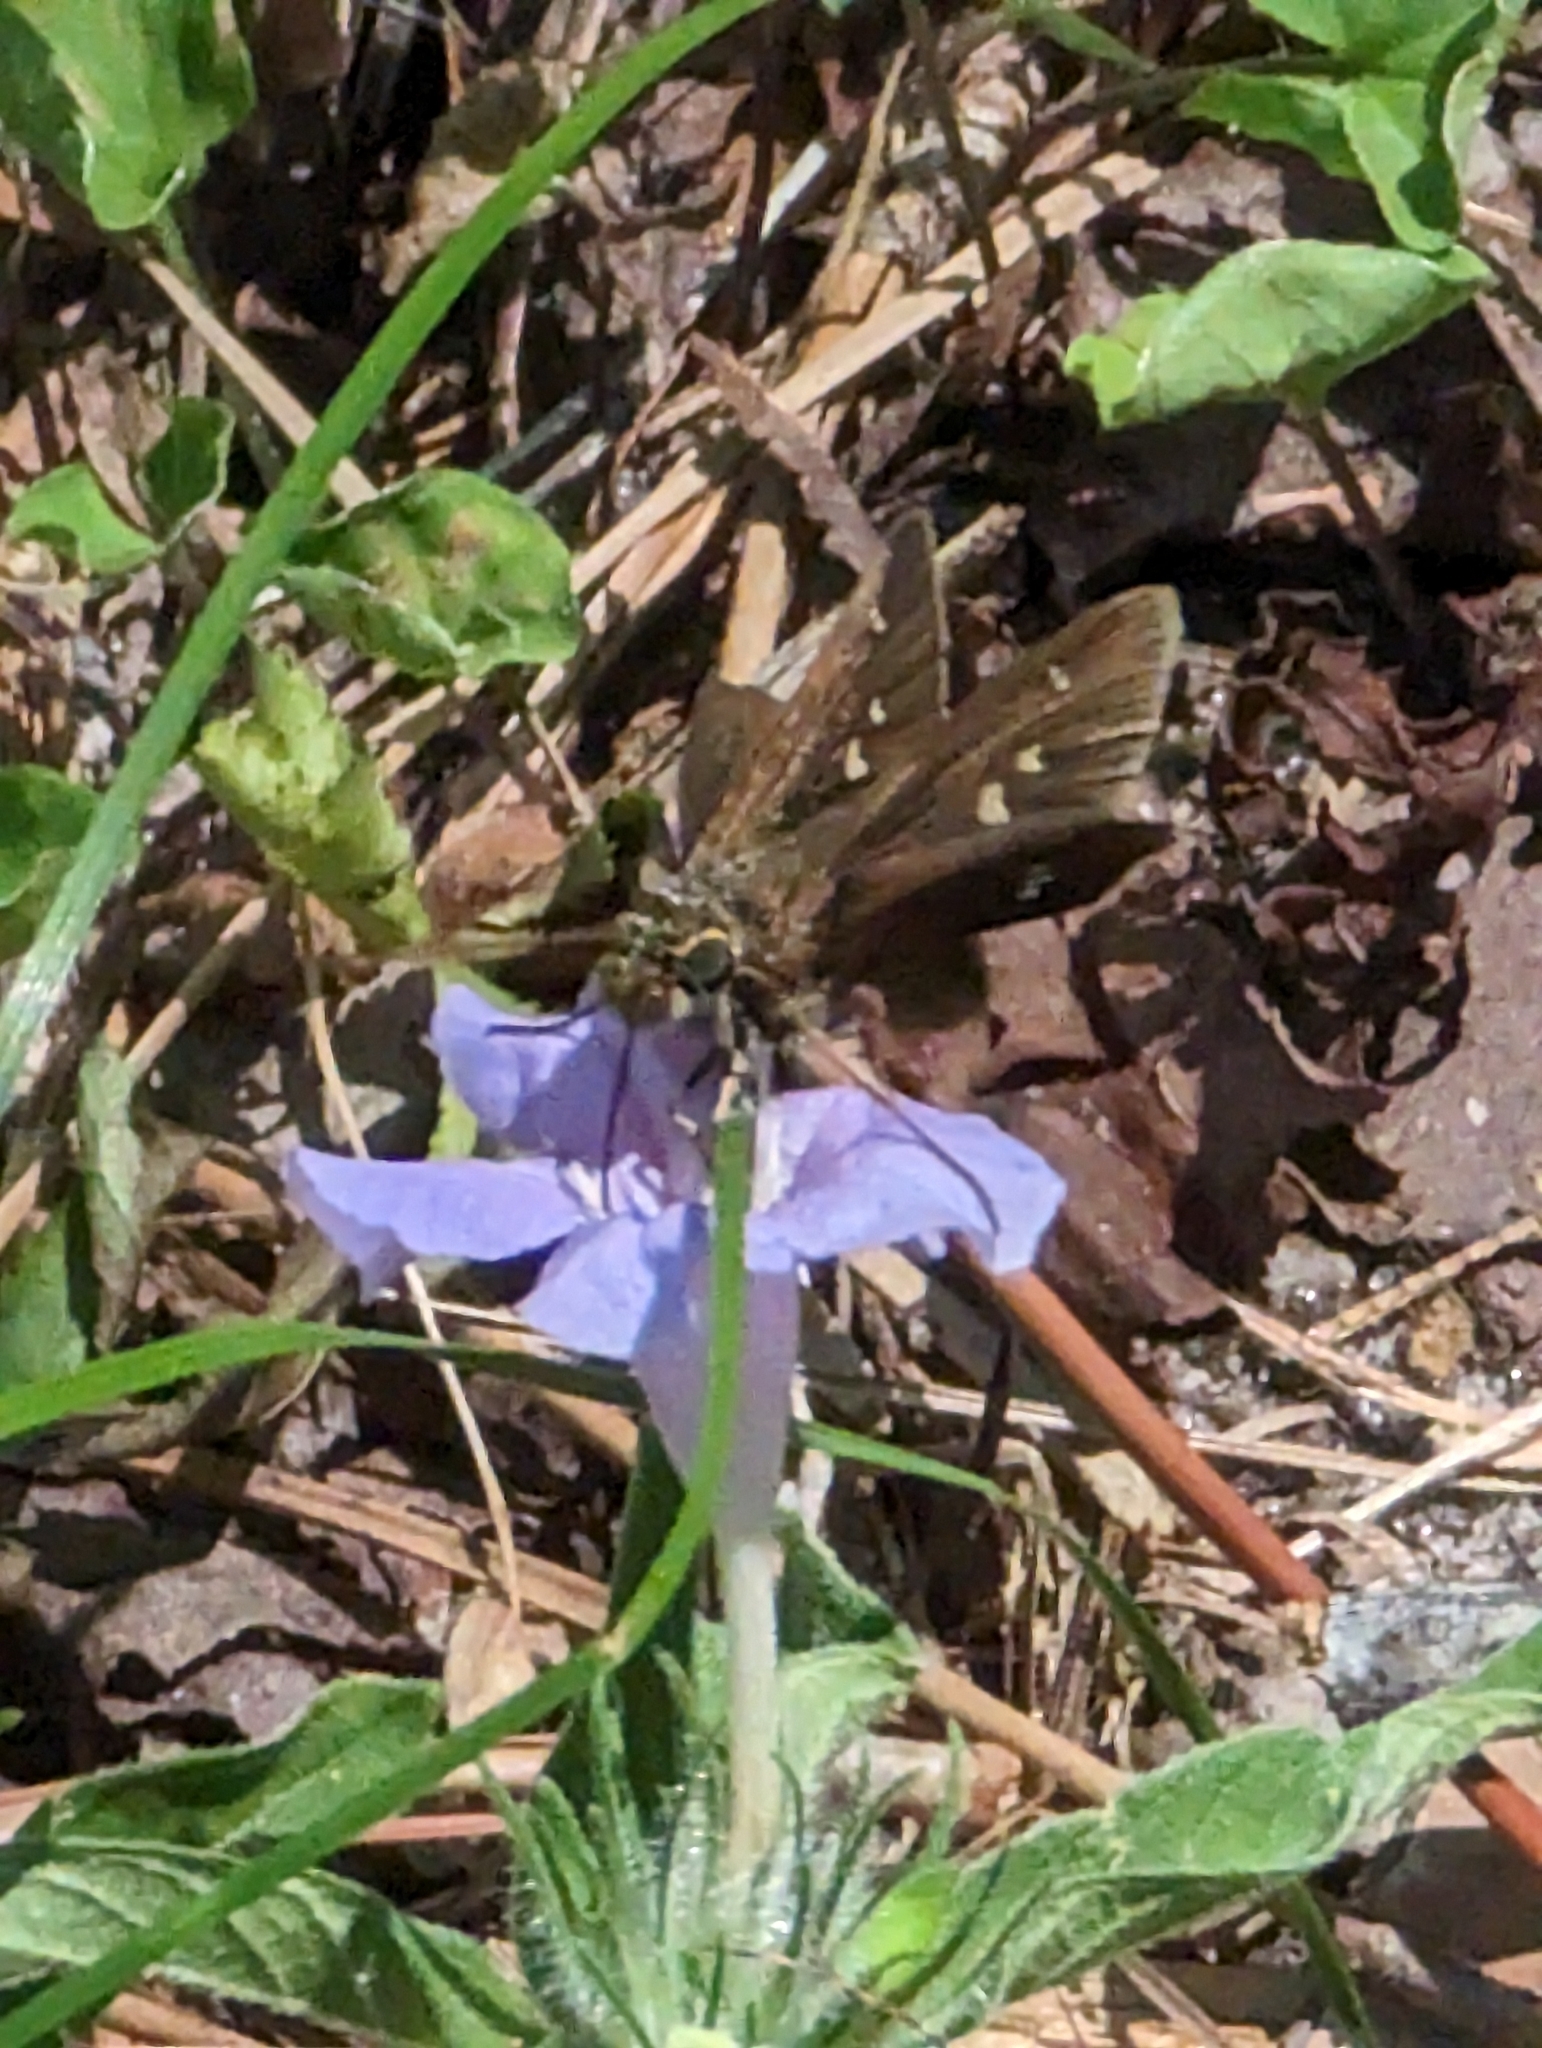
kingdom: Animalia
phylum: Arthropoda
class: Insecta
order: Lepidoptera
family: Hesperiidae
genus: Oligoria
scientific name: Oligoria maculata
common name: Twin-spot skipper
